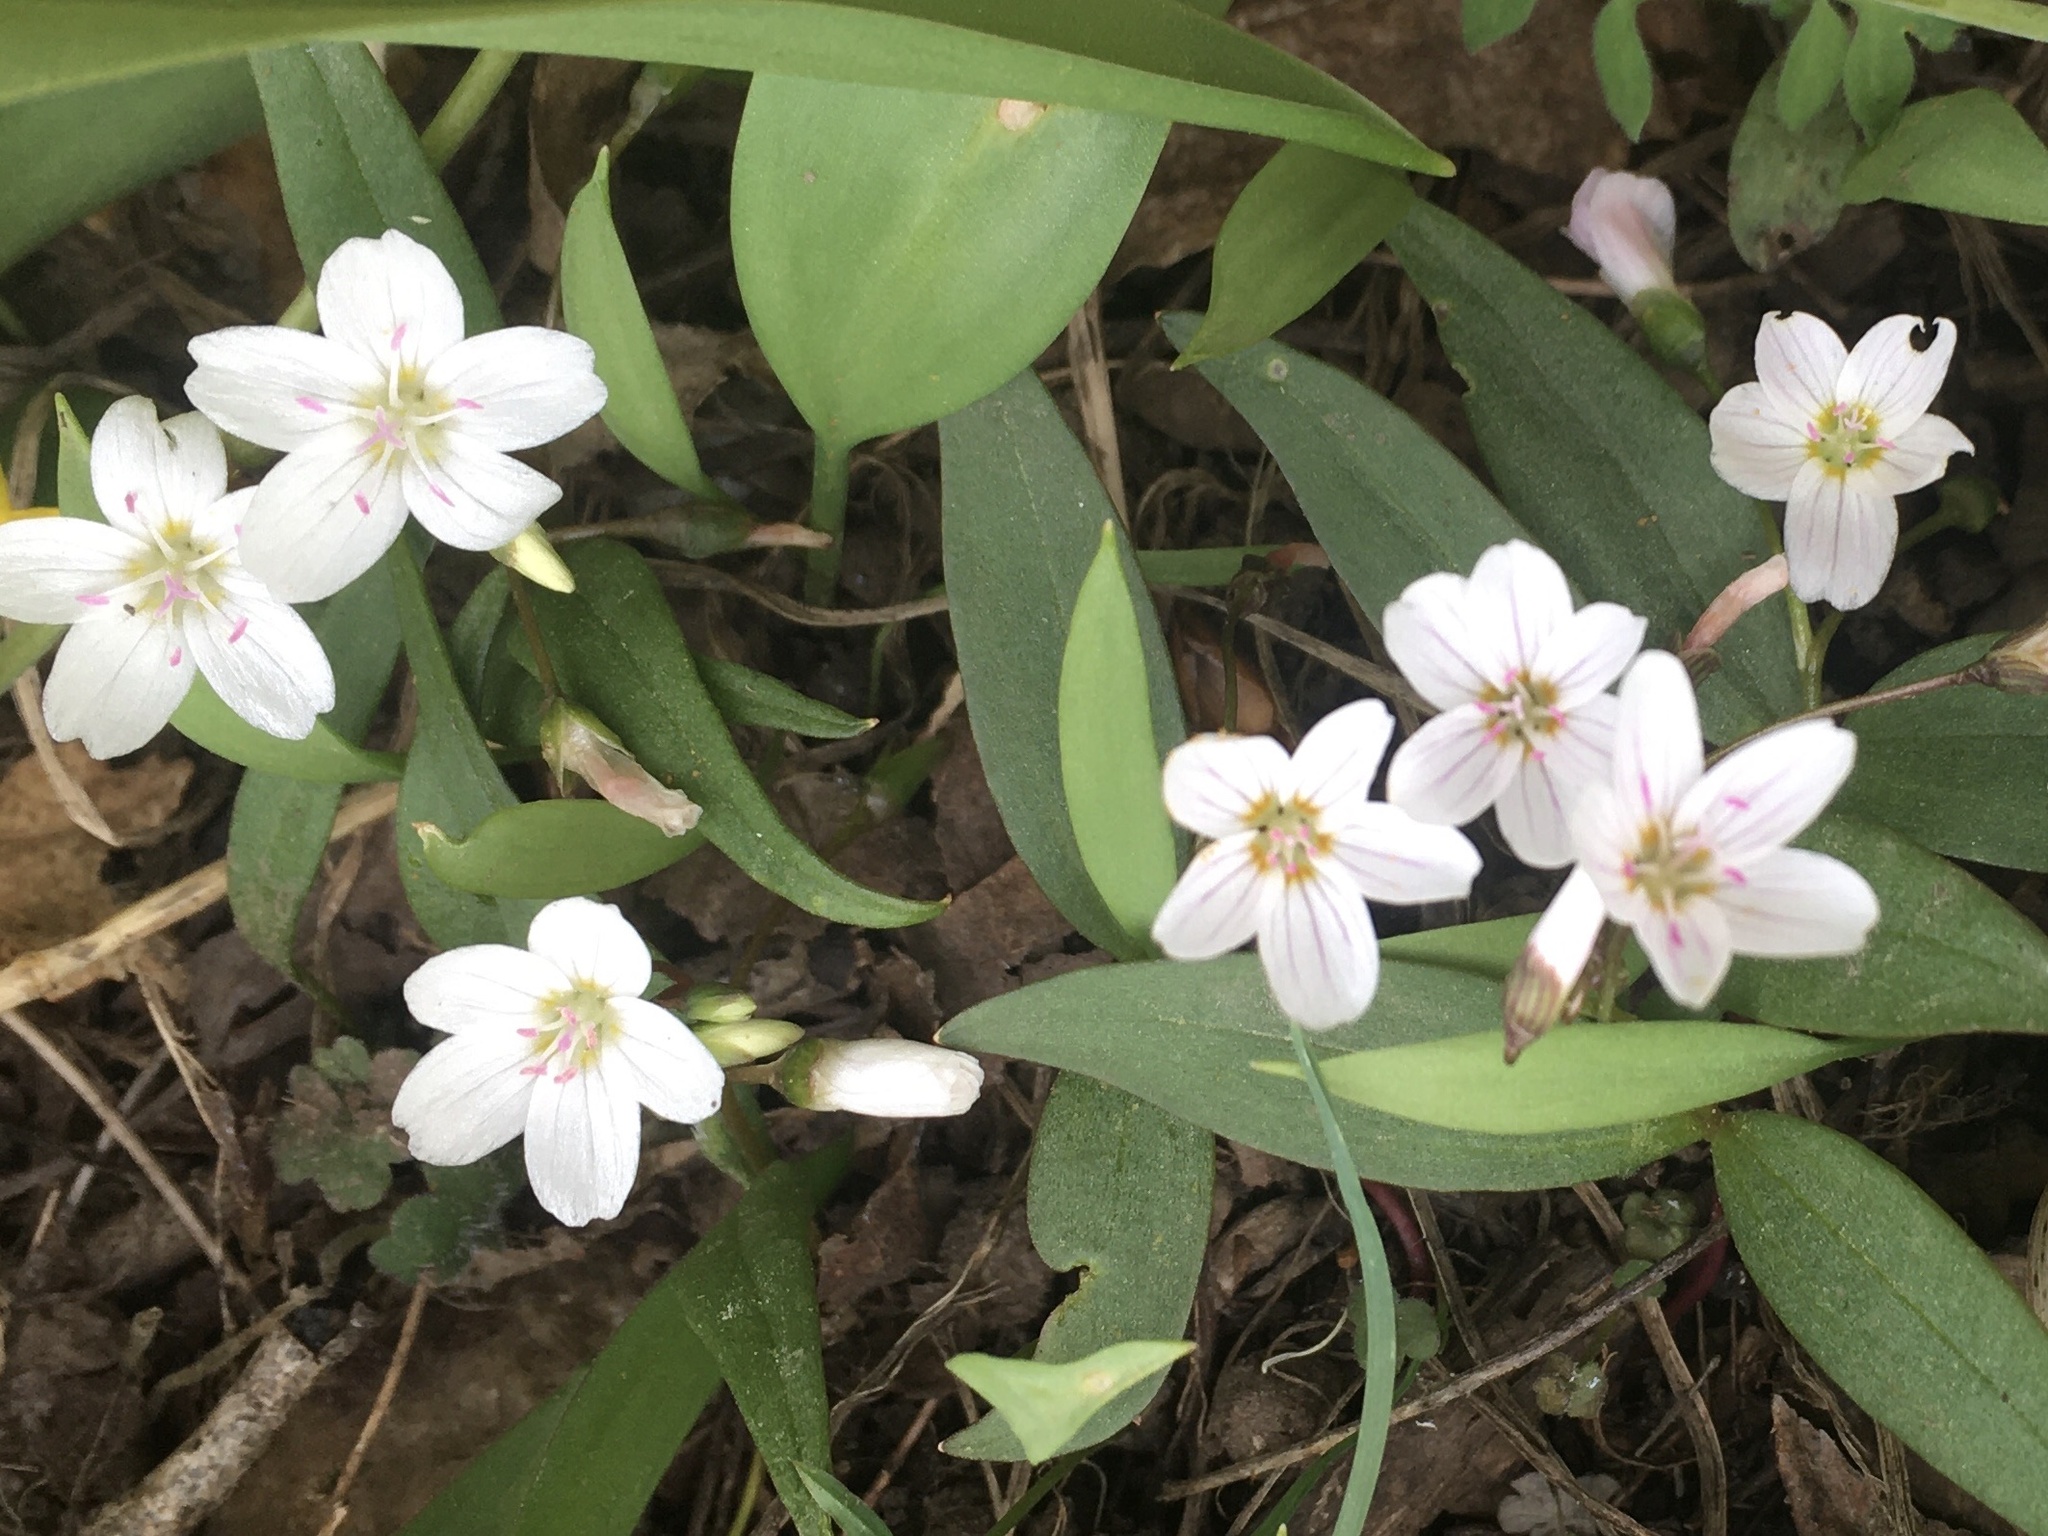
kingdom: Plantae
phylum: Tracheophyta
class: Magnoliopsida
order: Caryophyllales
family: Montiaceae
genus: Claytonia
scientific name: Claytonia lanceolata
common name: Western spring-beauty
